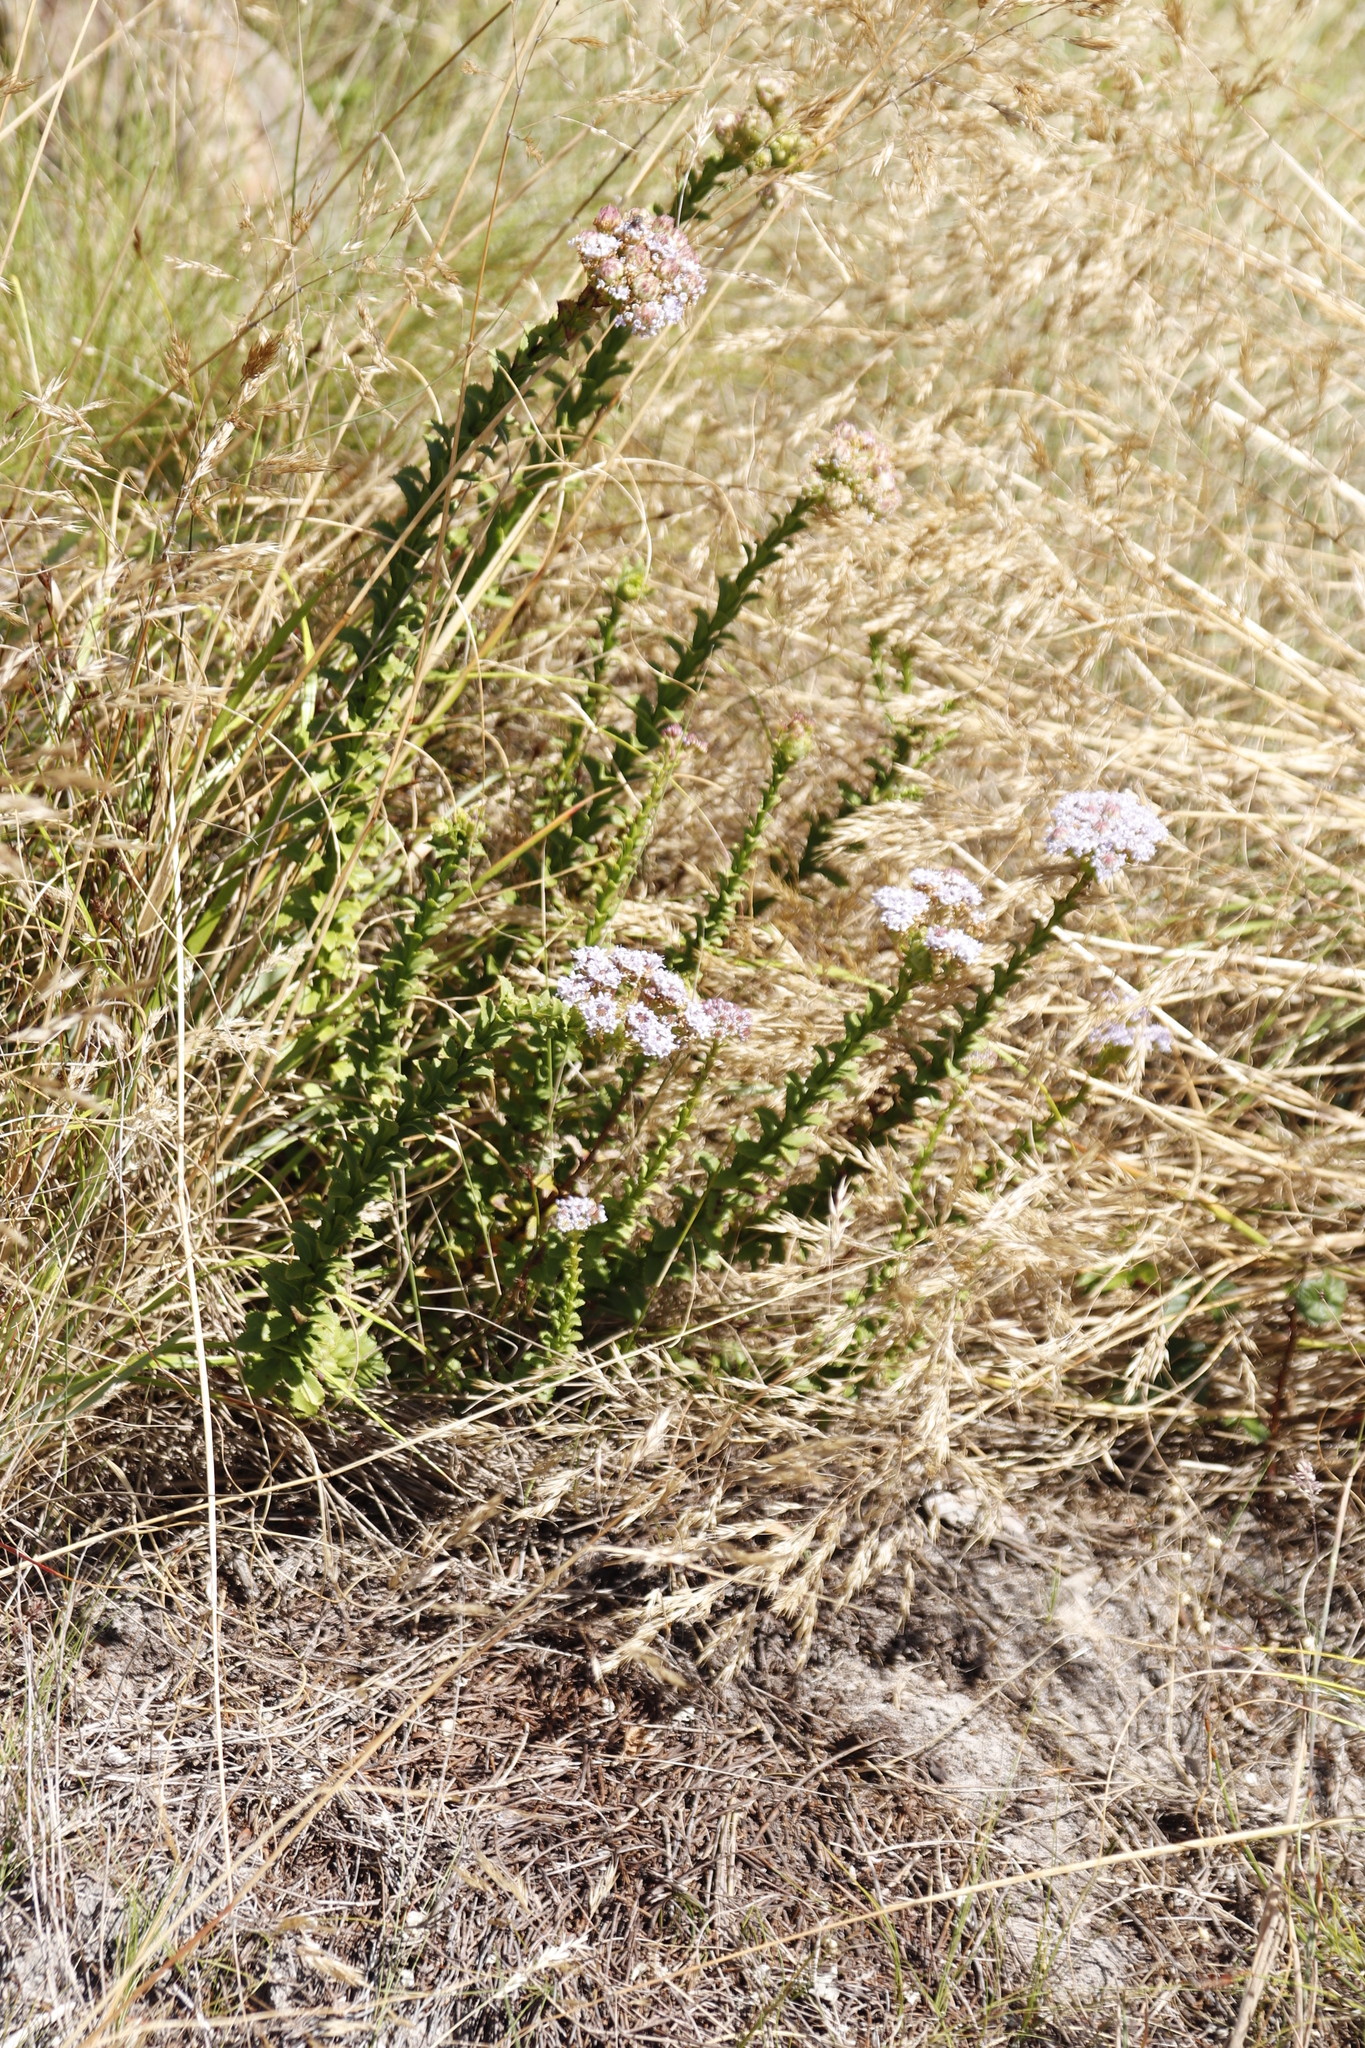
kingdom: Plantae
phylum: Tracheophyta
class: Magnoliopsida
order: Lamiales
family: Scrophulariaceae
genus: Pseudoselago
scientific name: Pseudoselago serrata
